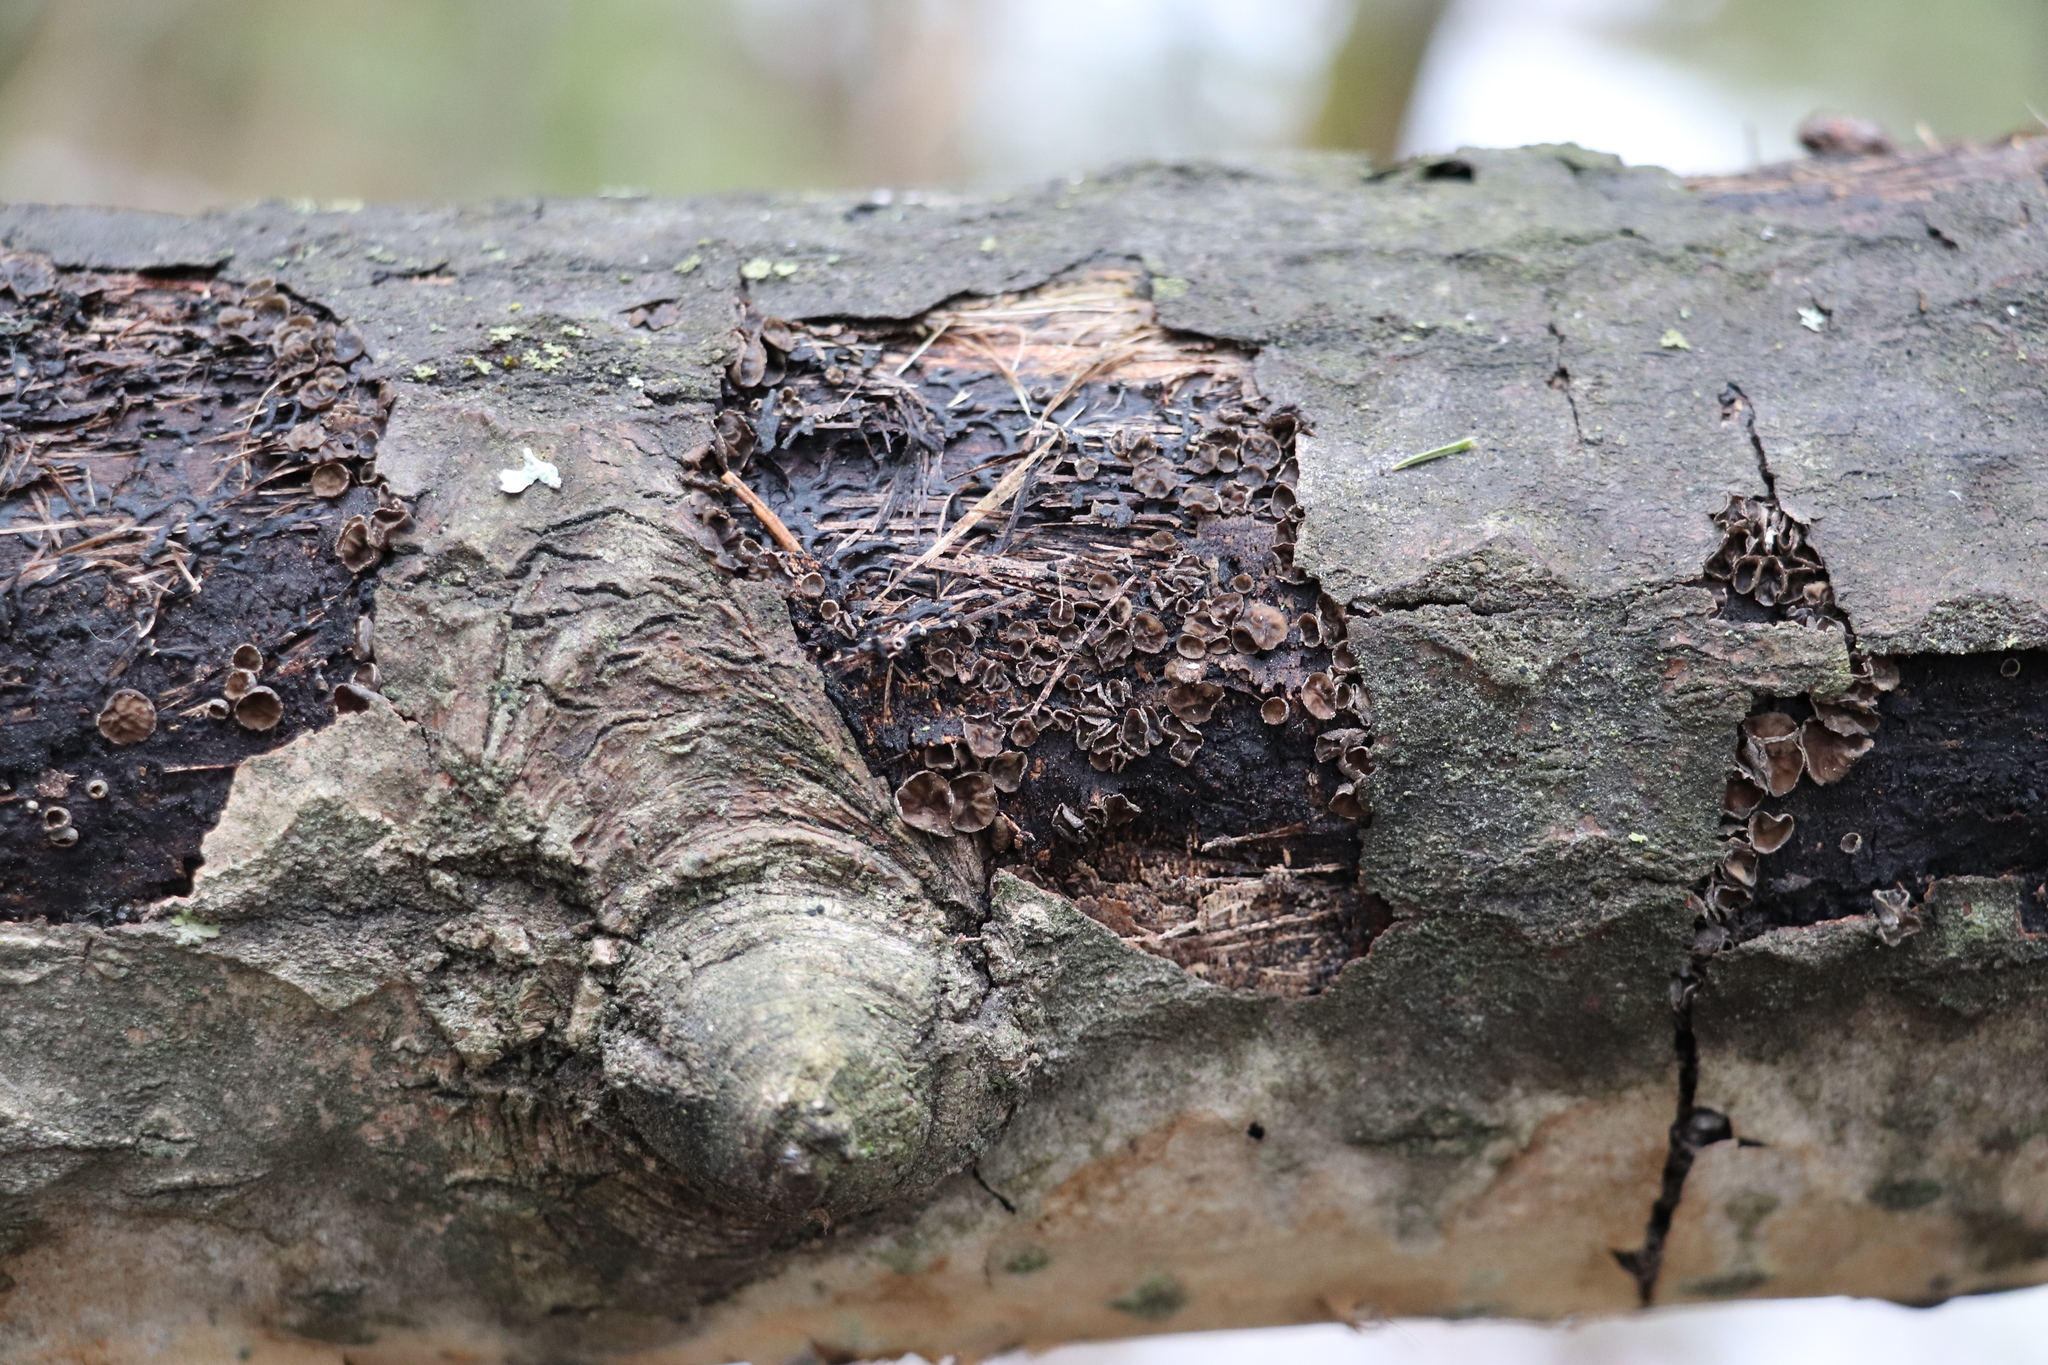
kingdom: Fungi
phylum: Ascomycota
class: Leotiomycetes
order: Helotiales
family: Sclerotiniaceae
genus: Sclerencoelia
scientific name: Sclerencoelia pruinosa
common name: Sooty-bark canker
